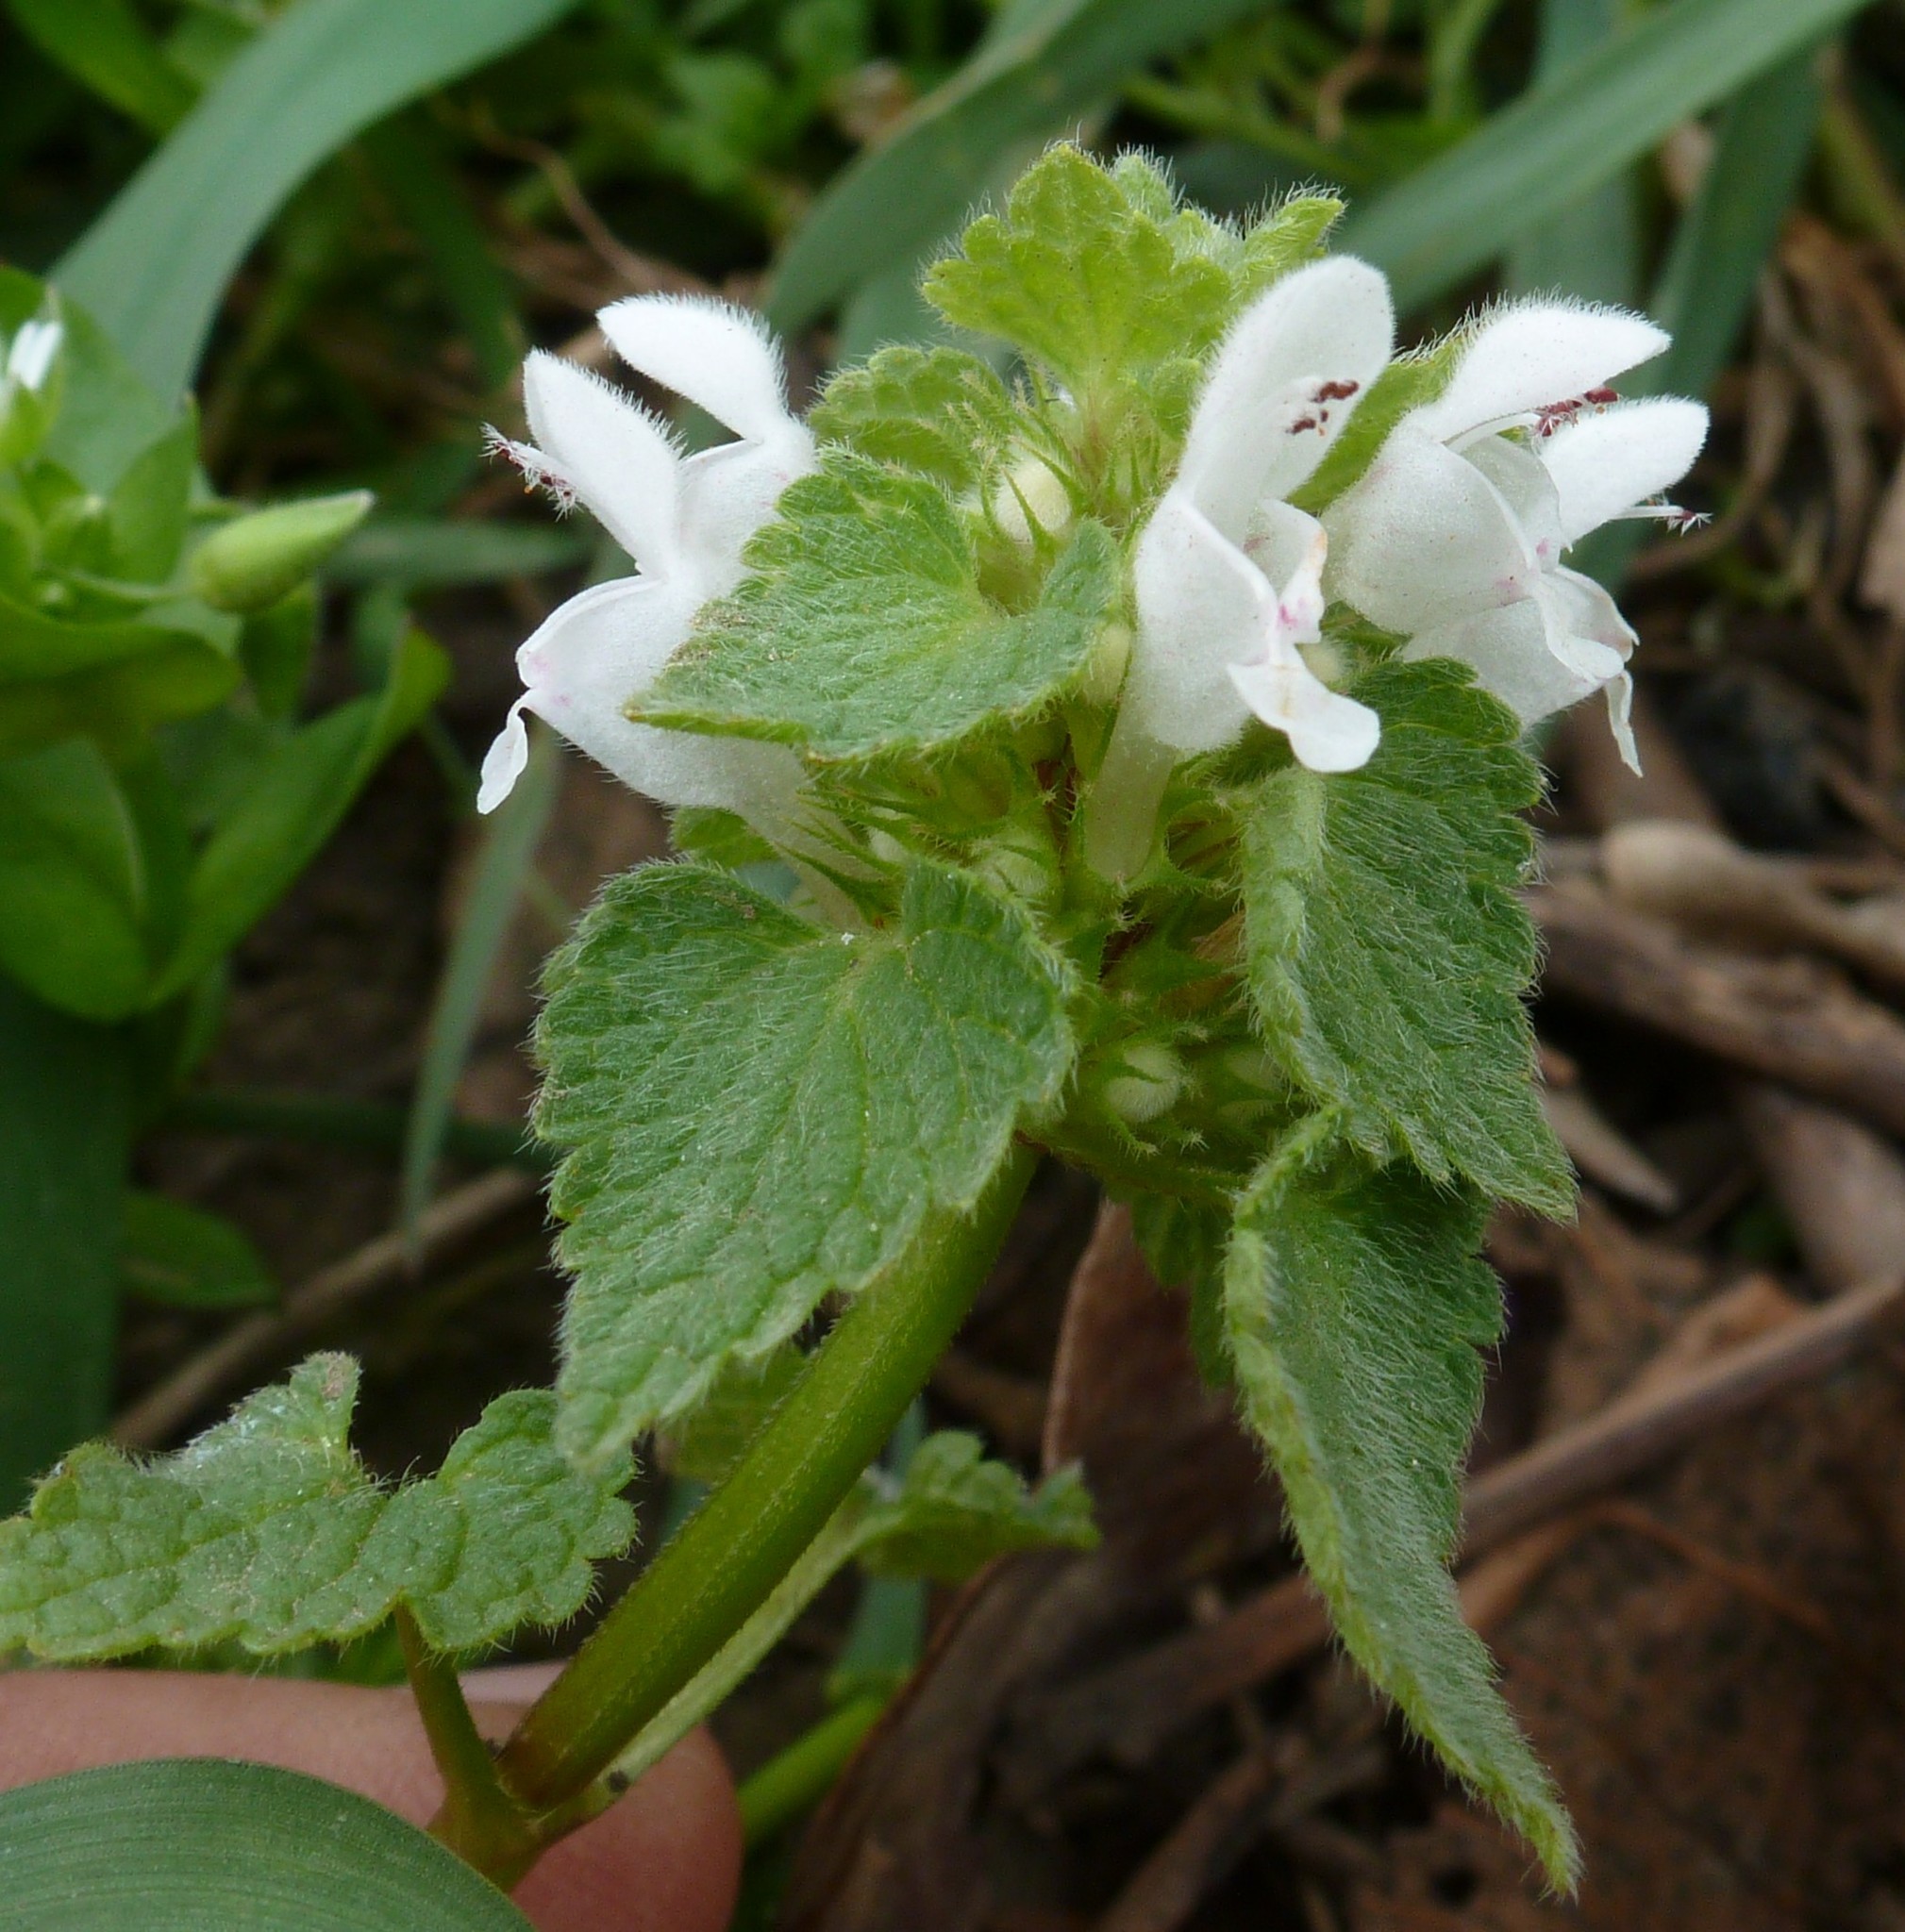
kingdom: Plantae
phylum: Tracheophyta
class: Magnoliopsida
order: Lamiales
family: Lamiaceae
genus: Lamium
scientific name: Lamium purpureum
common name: Red dead-nettle
